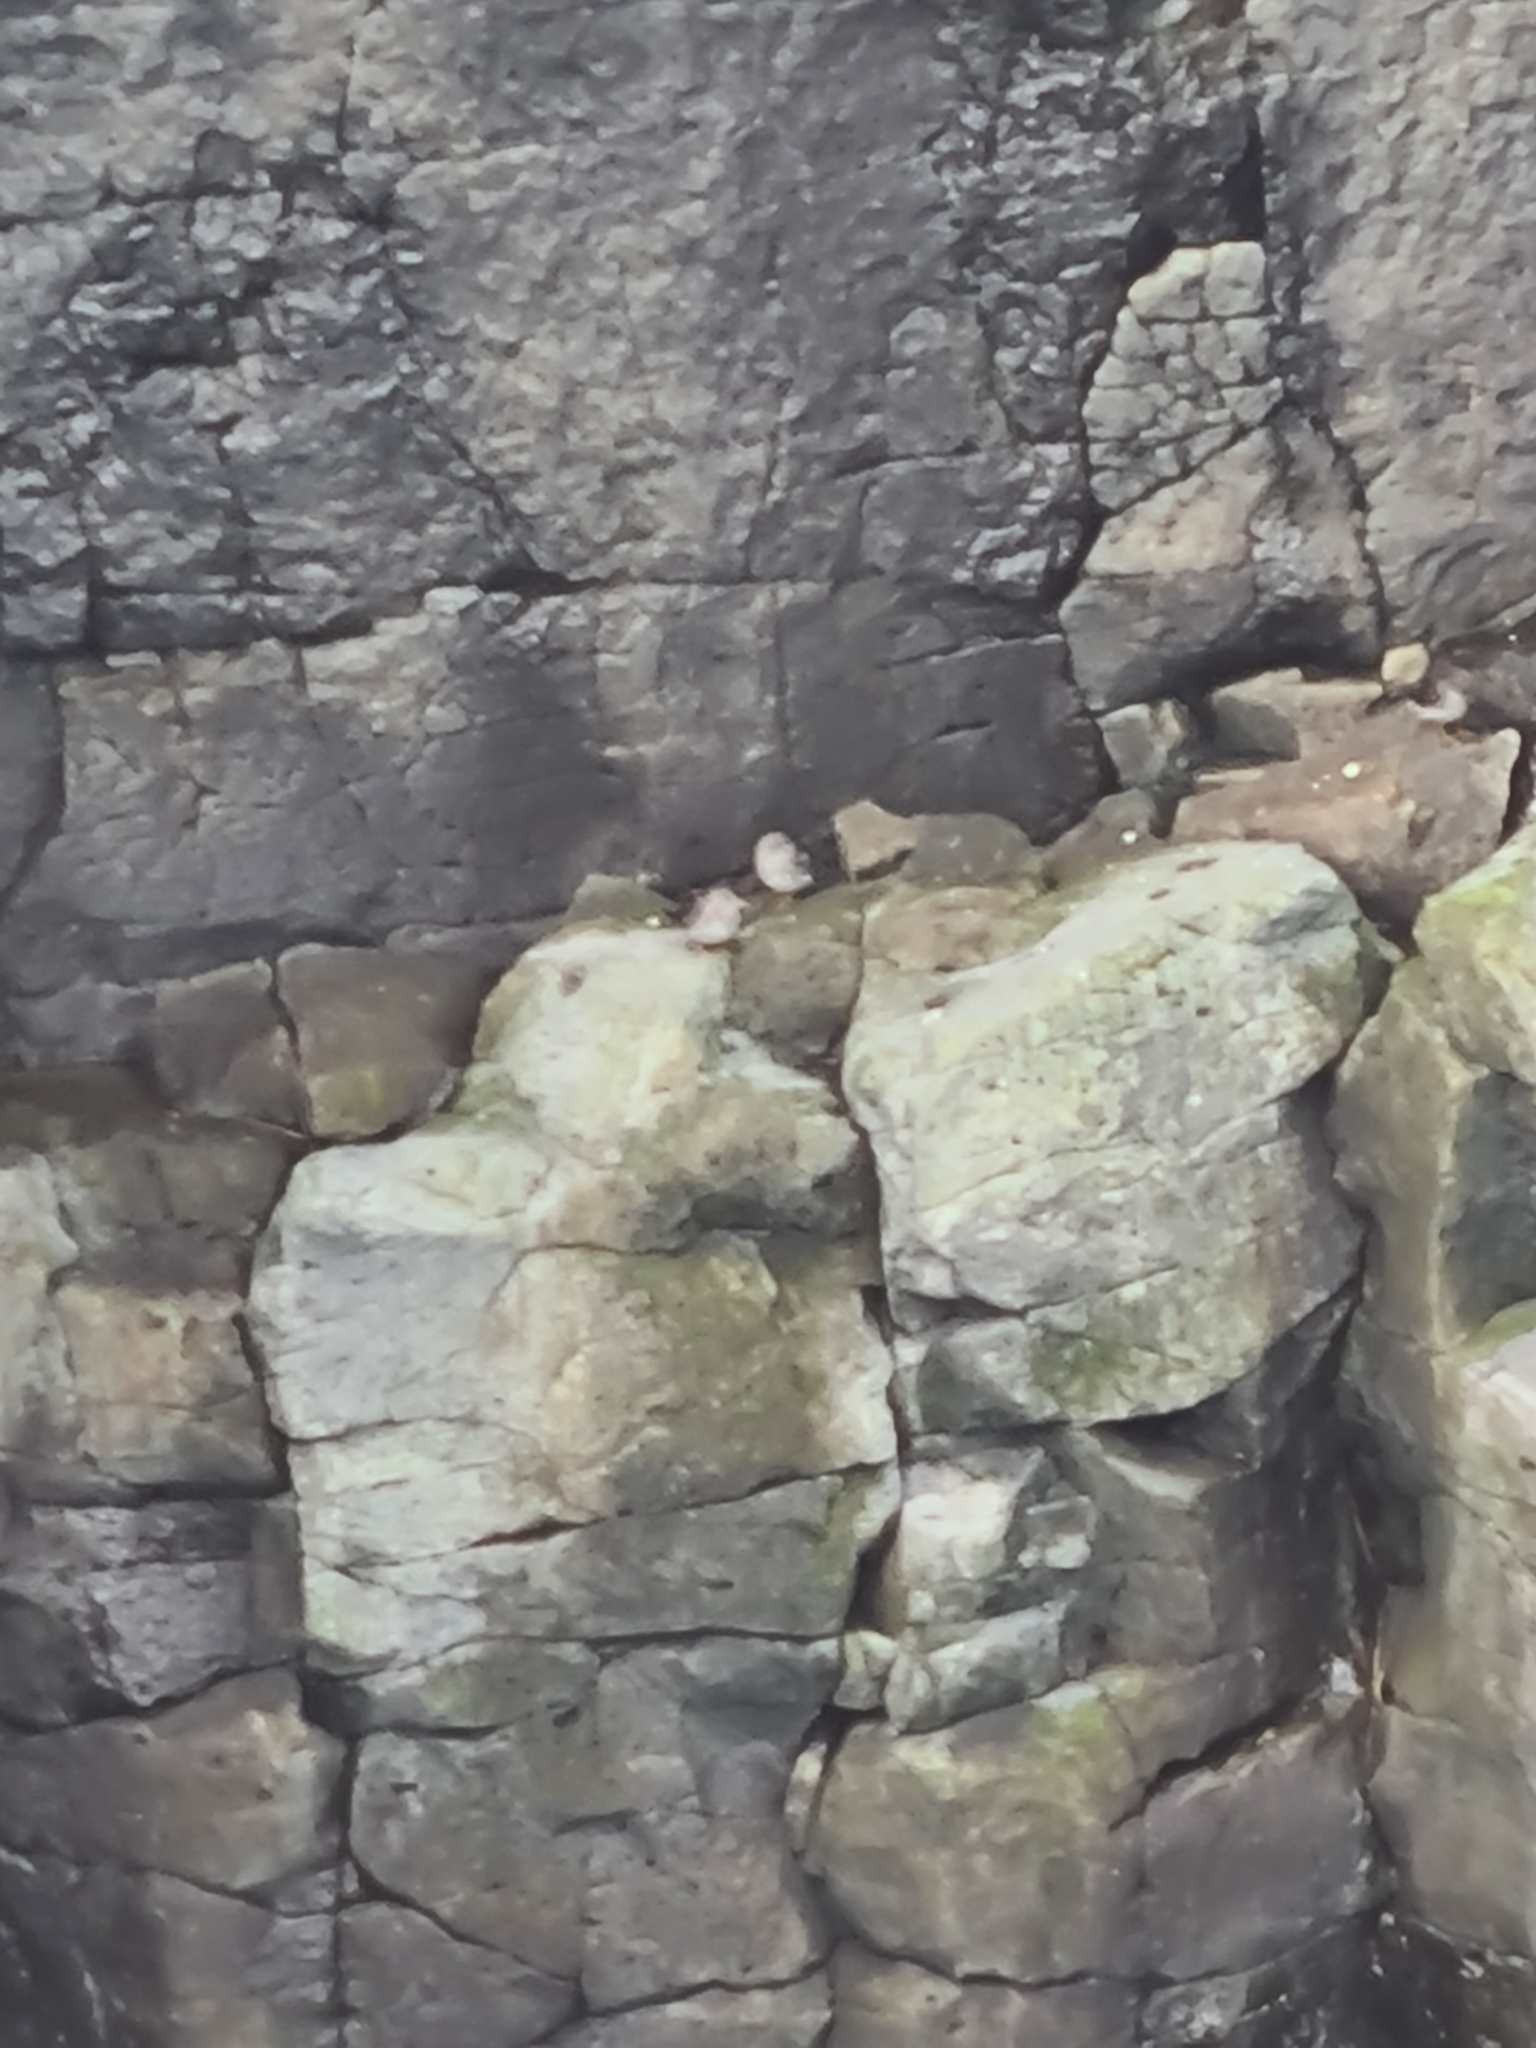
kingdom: Animalia
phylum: Chordata
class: Aves
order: Charadriiformes
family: Scolopacidae
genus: Calidris
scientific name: Calidris maritima
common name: Purple sandpiper
